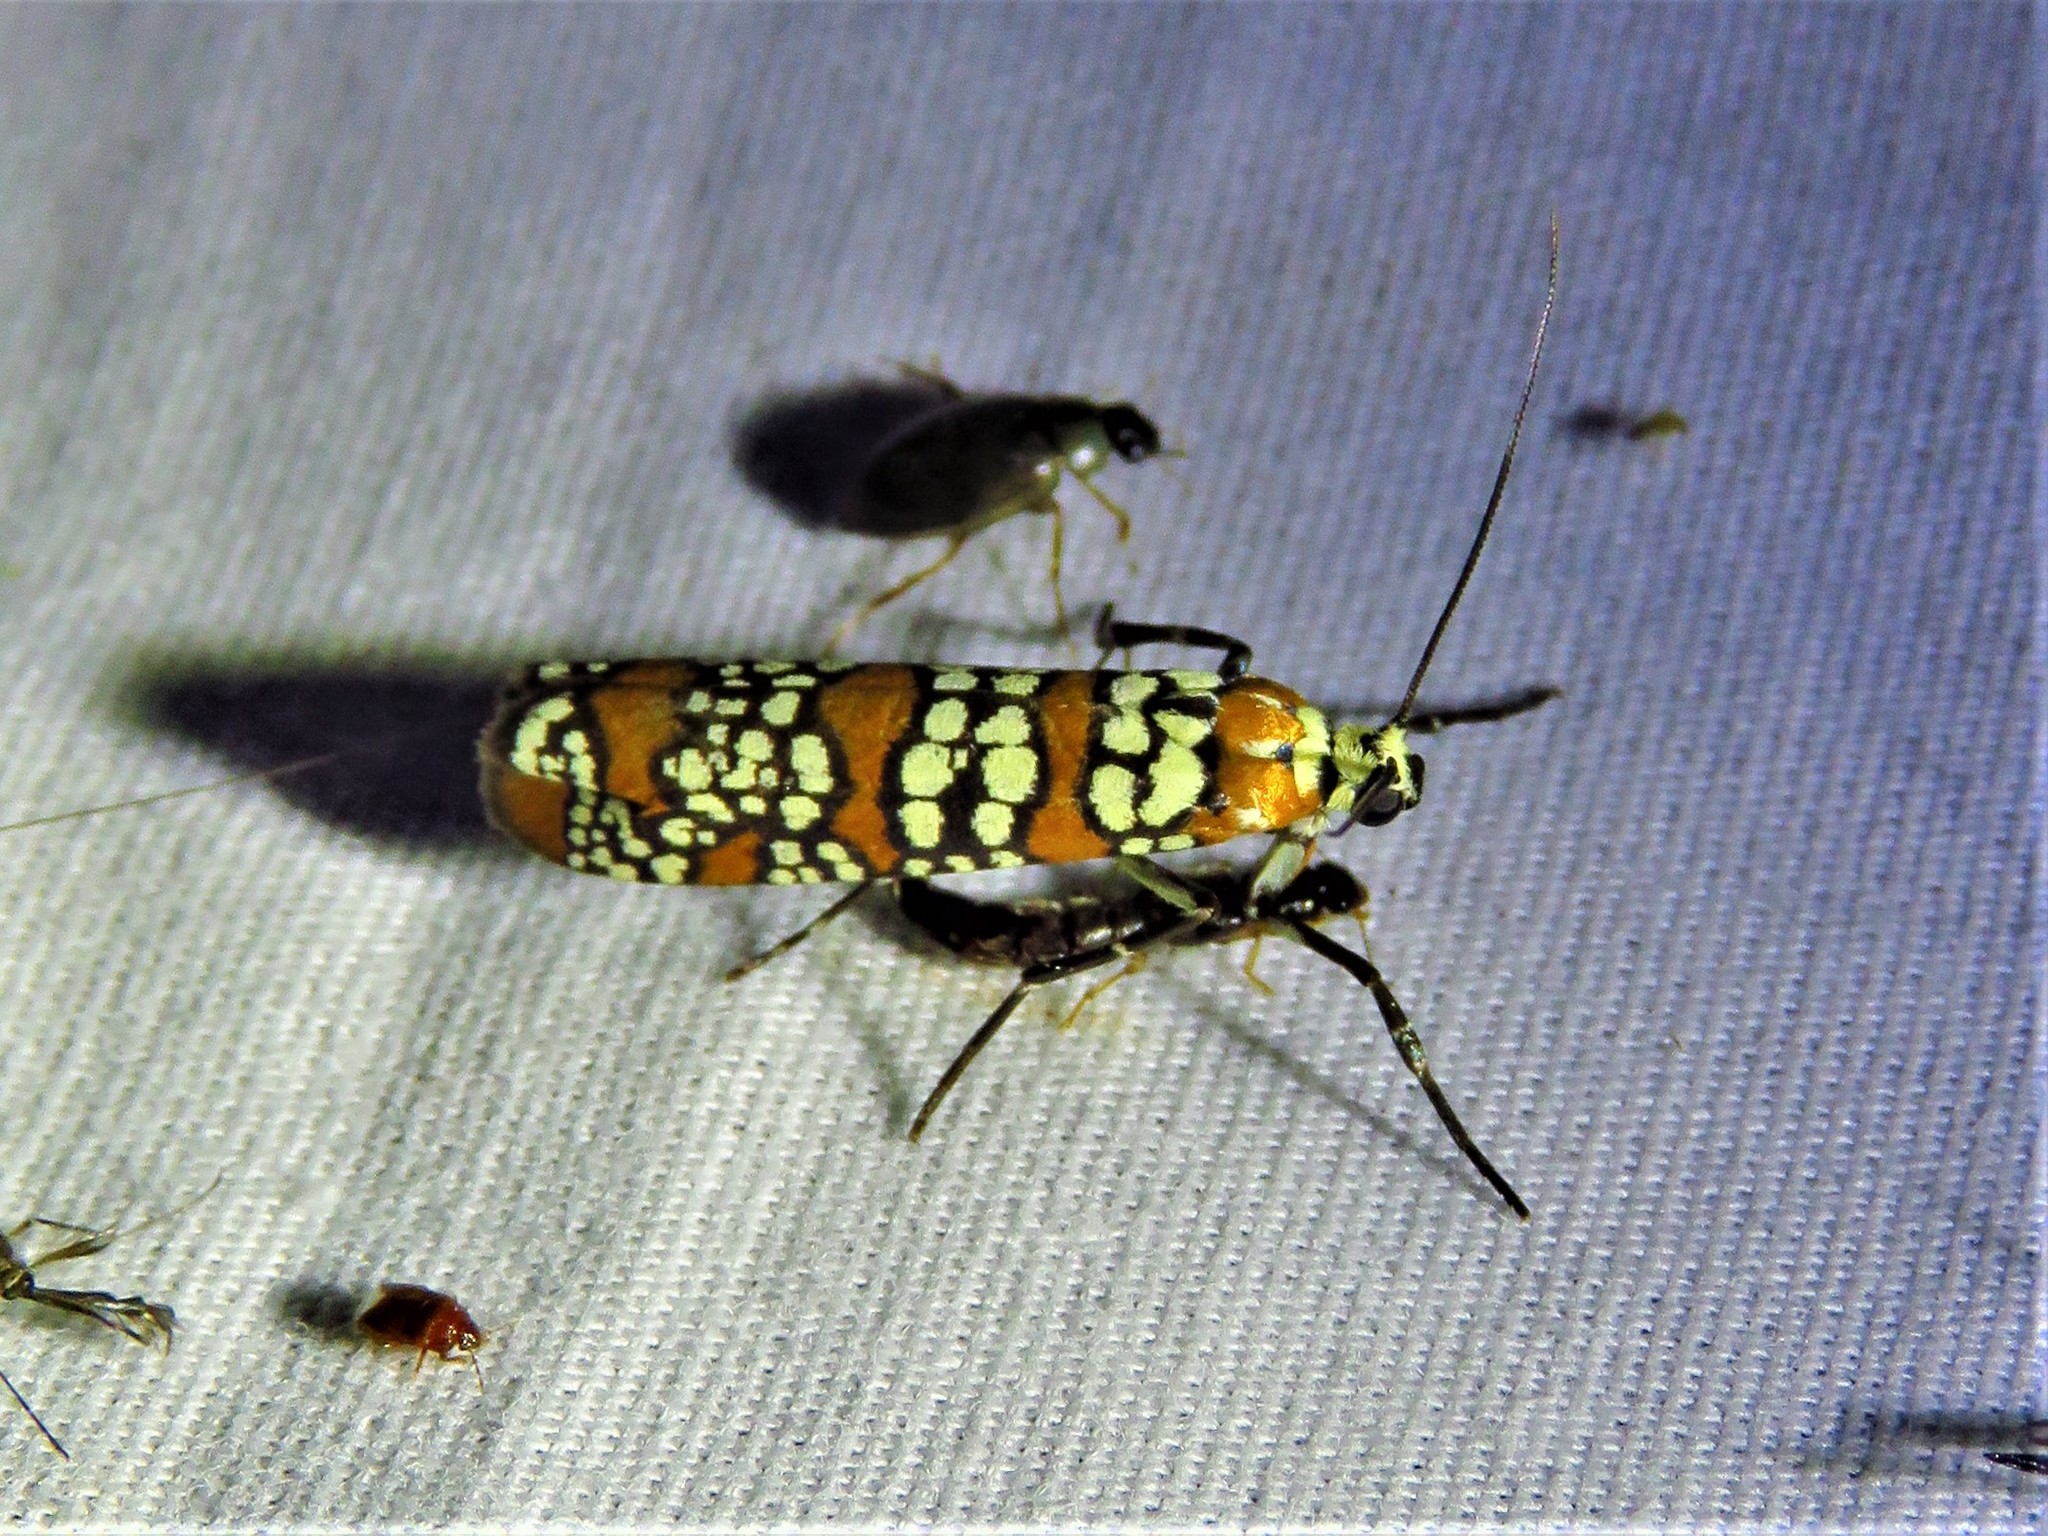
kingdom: Animalia
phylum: Arthropoda
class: Insecta
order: Lepidoptera
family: Attevidae
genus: Atteva
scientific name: Atteva punctella
